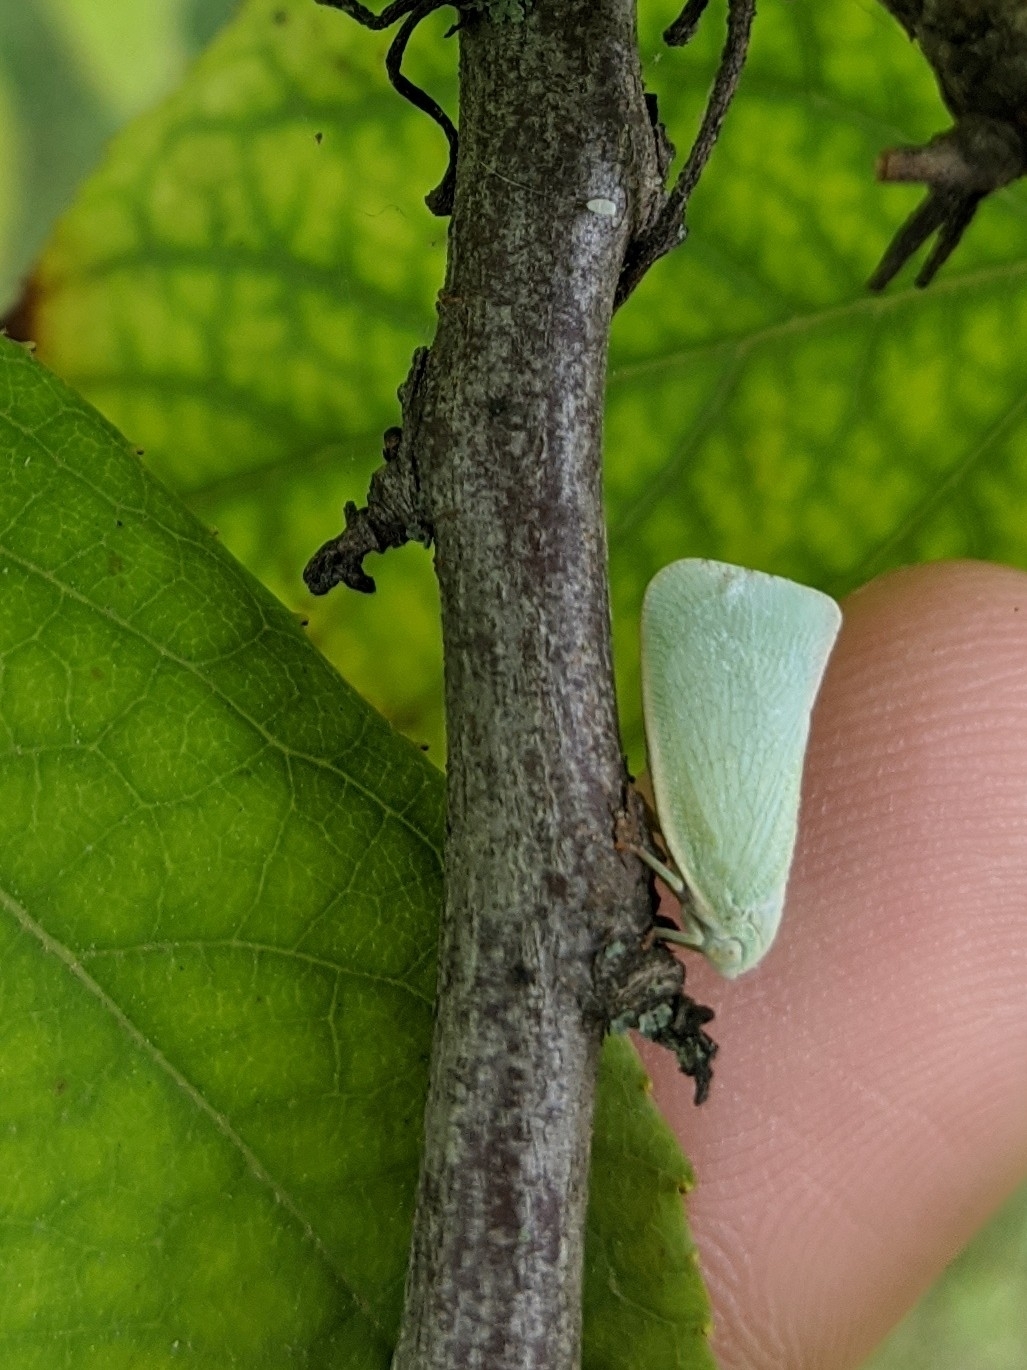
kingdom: Animalia
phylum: Arthropoda
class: Insecta
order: Hemiptera
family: Flatidae
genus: Flatormenis
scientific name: Flatormenis proxima
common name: Northern flatid planthopper
